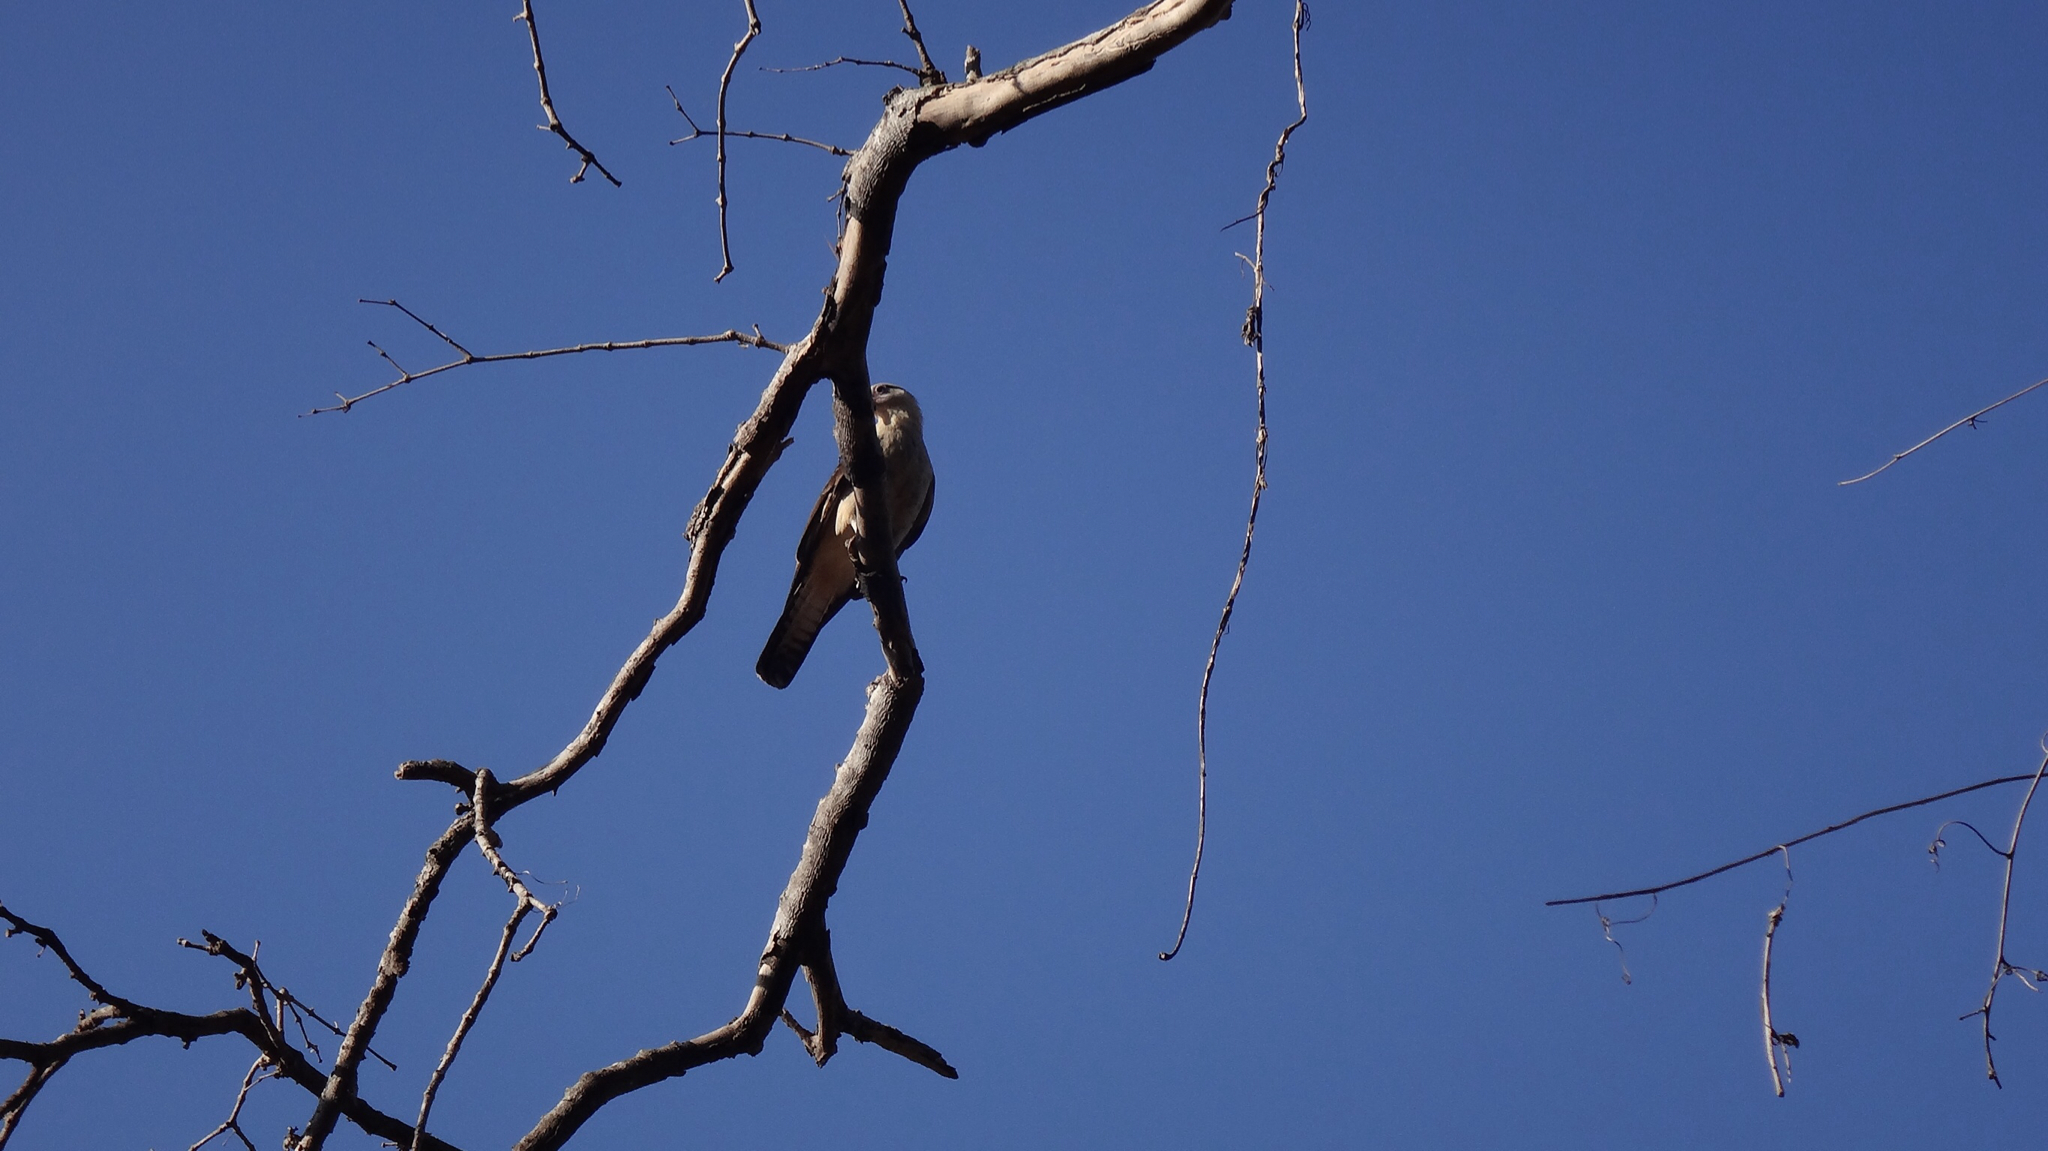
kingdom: Animalia
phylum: Chordata
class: Aves
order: Falconiformes
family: Falconidae
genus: Daptrius
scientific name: Daptrius
